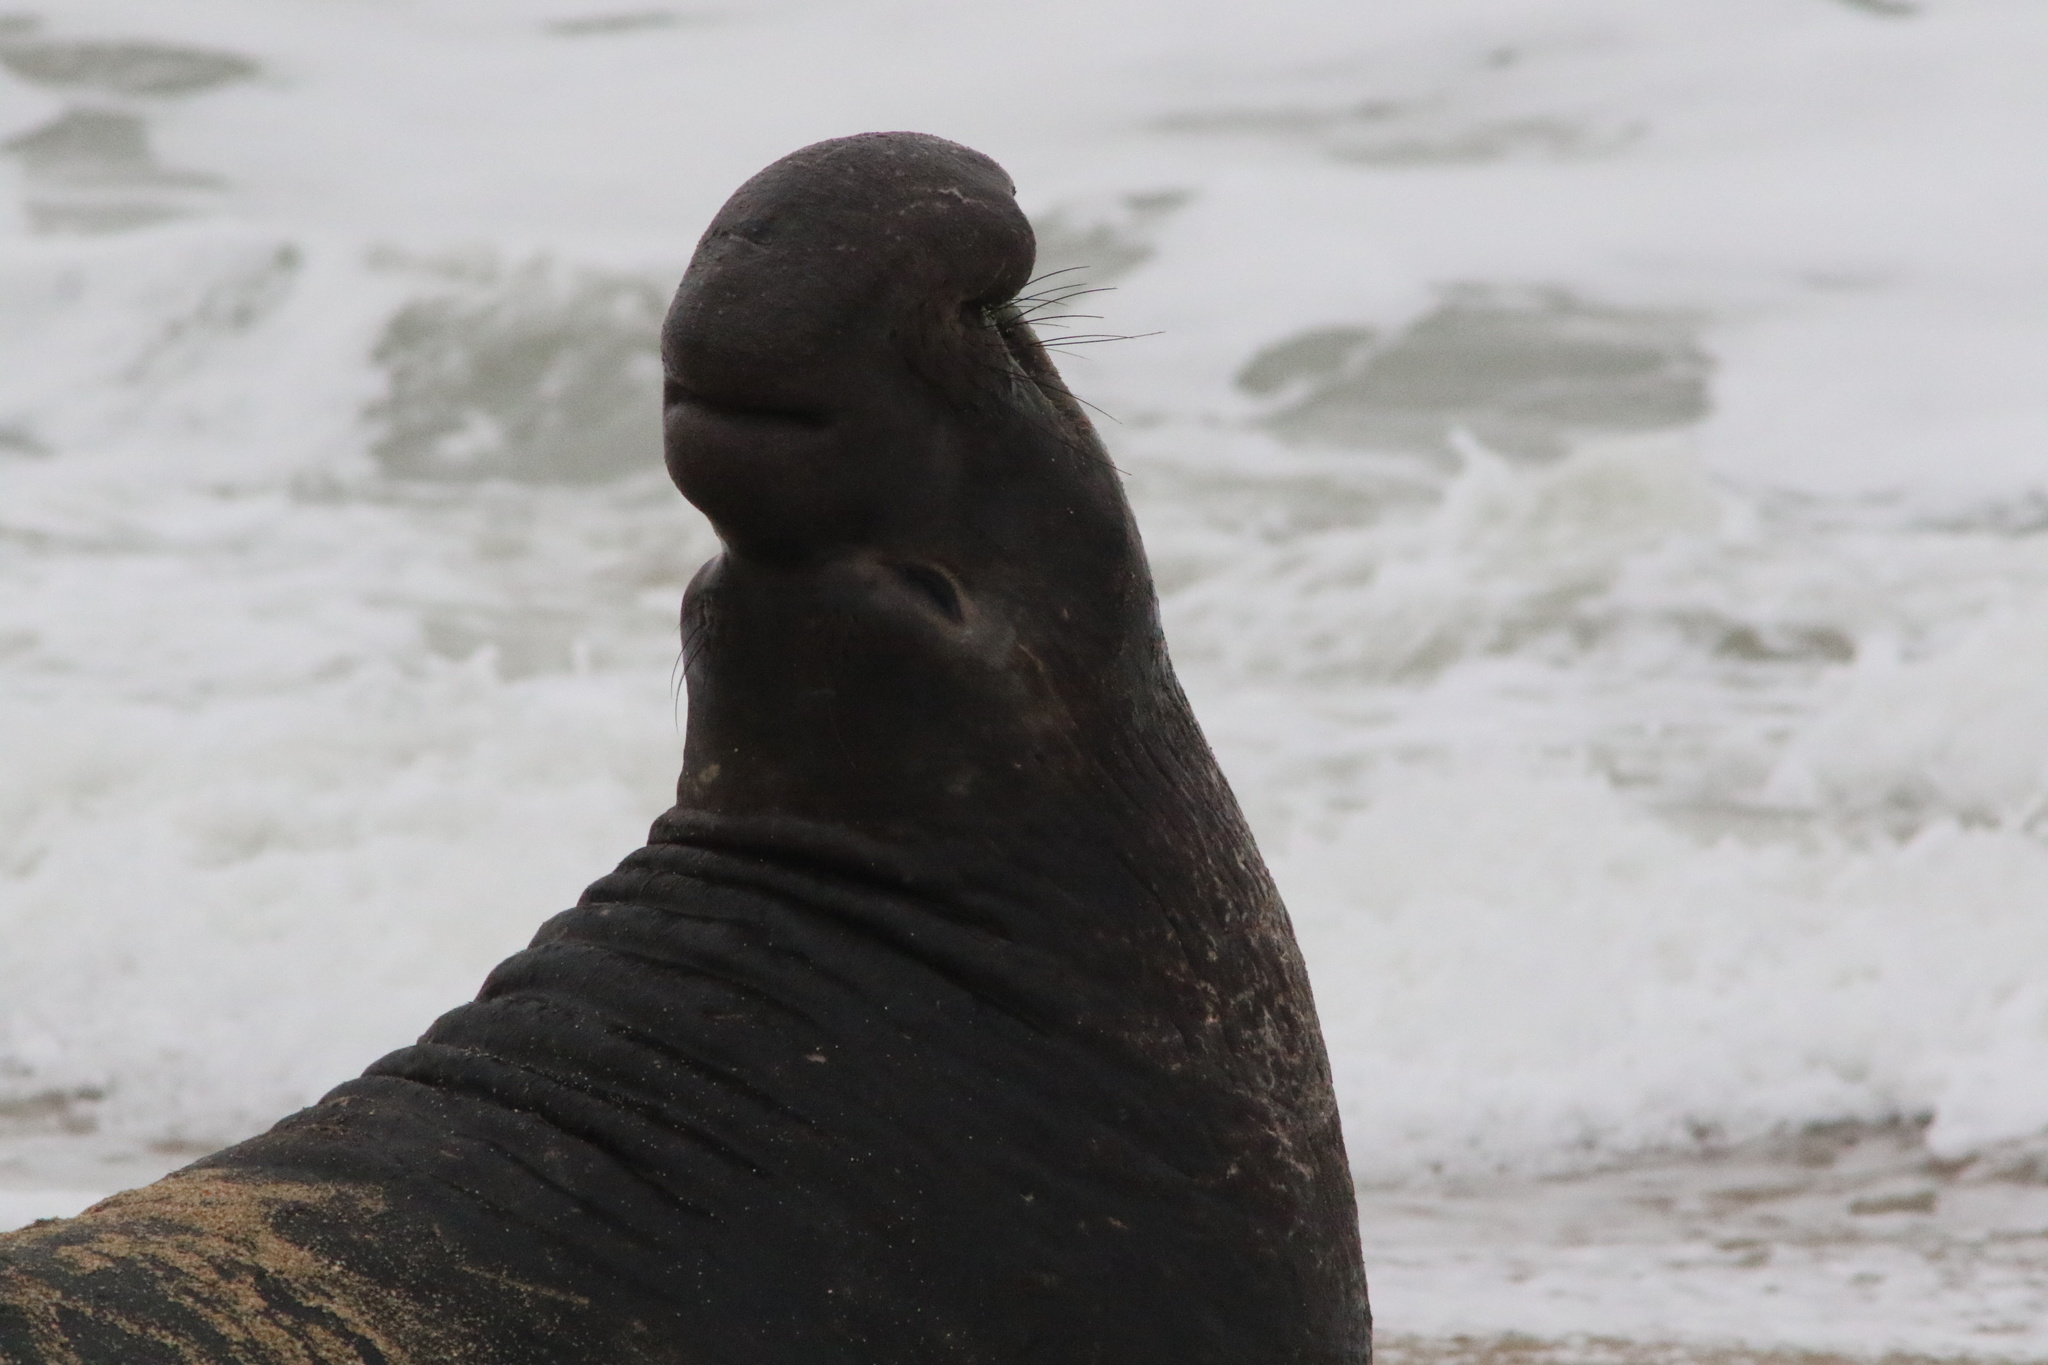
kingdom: Animalia
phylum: Chordata
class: Mammalia
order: Carnivora
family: Phocidae
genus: Mirounga
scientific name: Mirounga angustirostris
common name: Northern elephant seal
